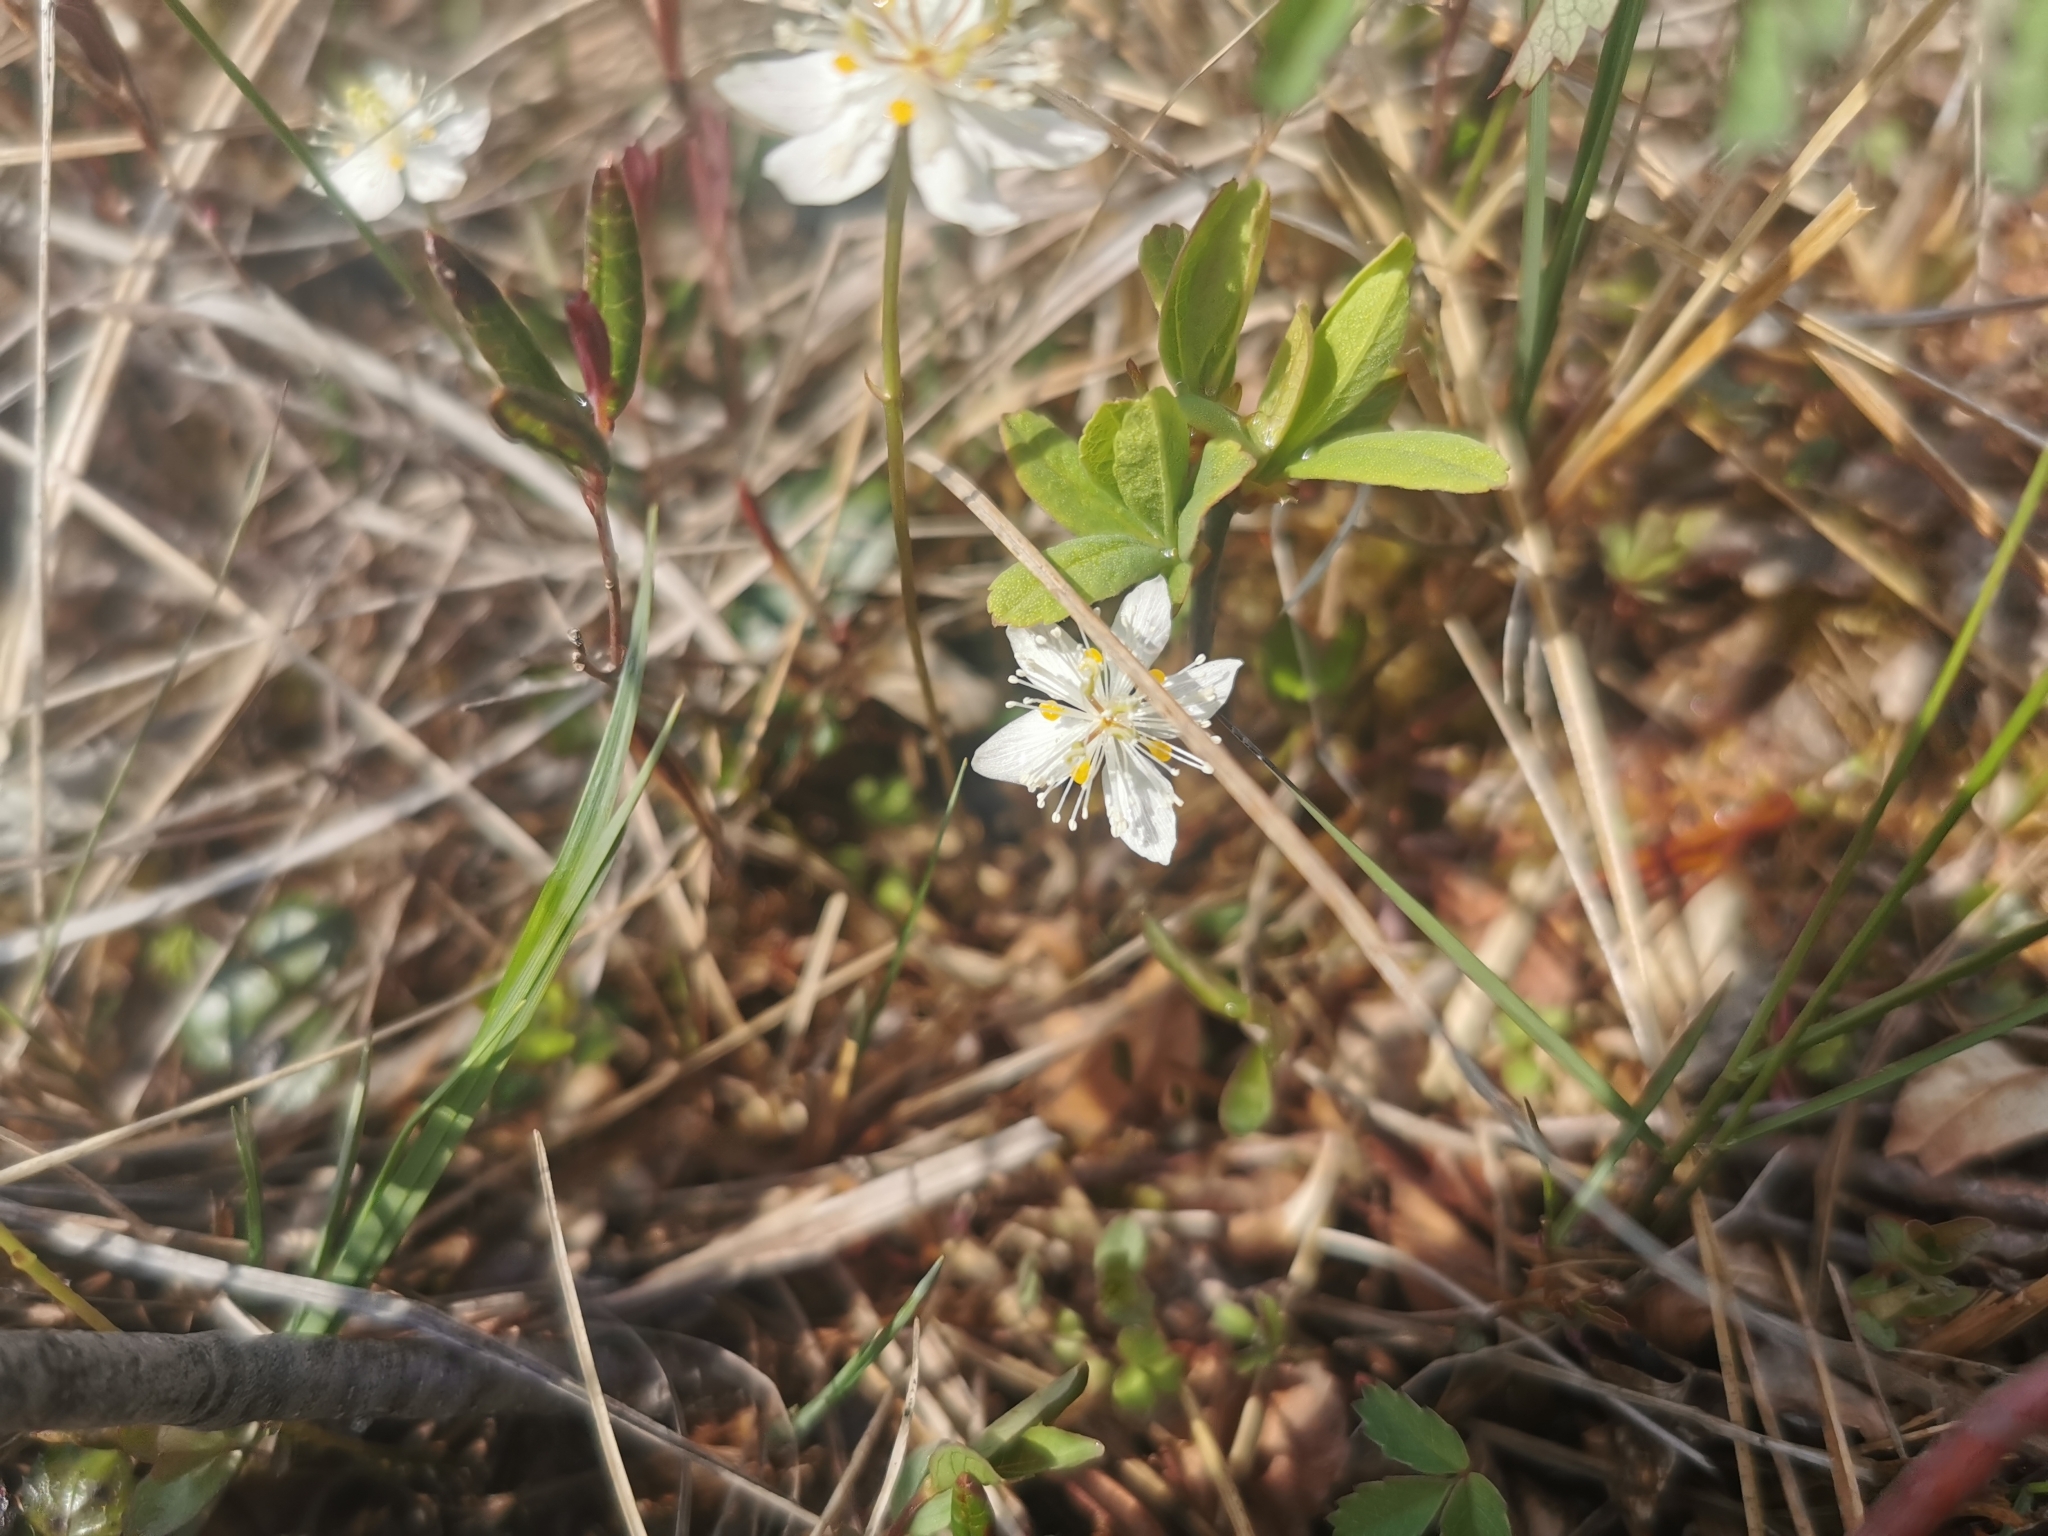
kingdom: Plantae
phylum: Tracheophyta
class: Magnoliopsida
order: Ranunculales
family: Ranunculaceae
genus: Coptis
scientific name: Coptis trifolia
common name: Canker-root
